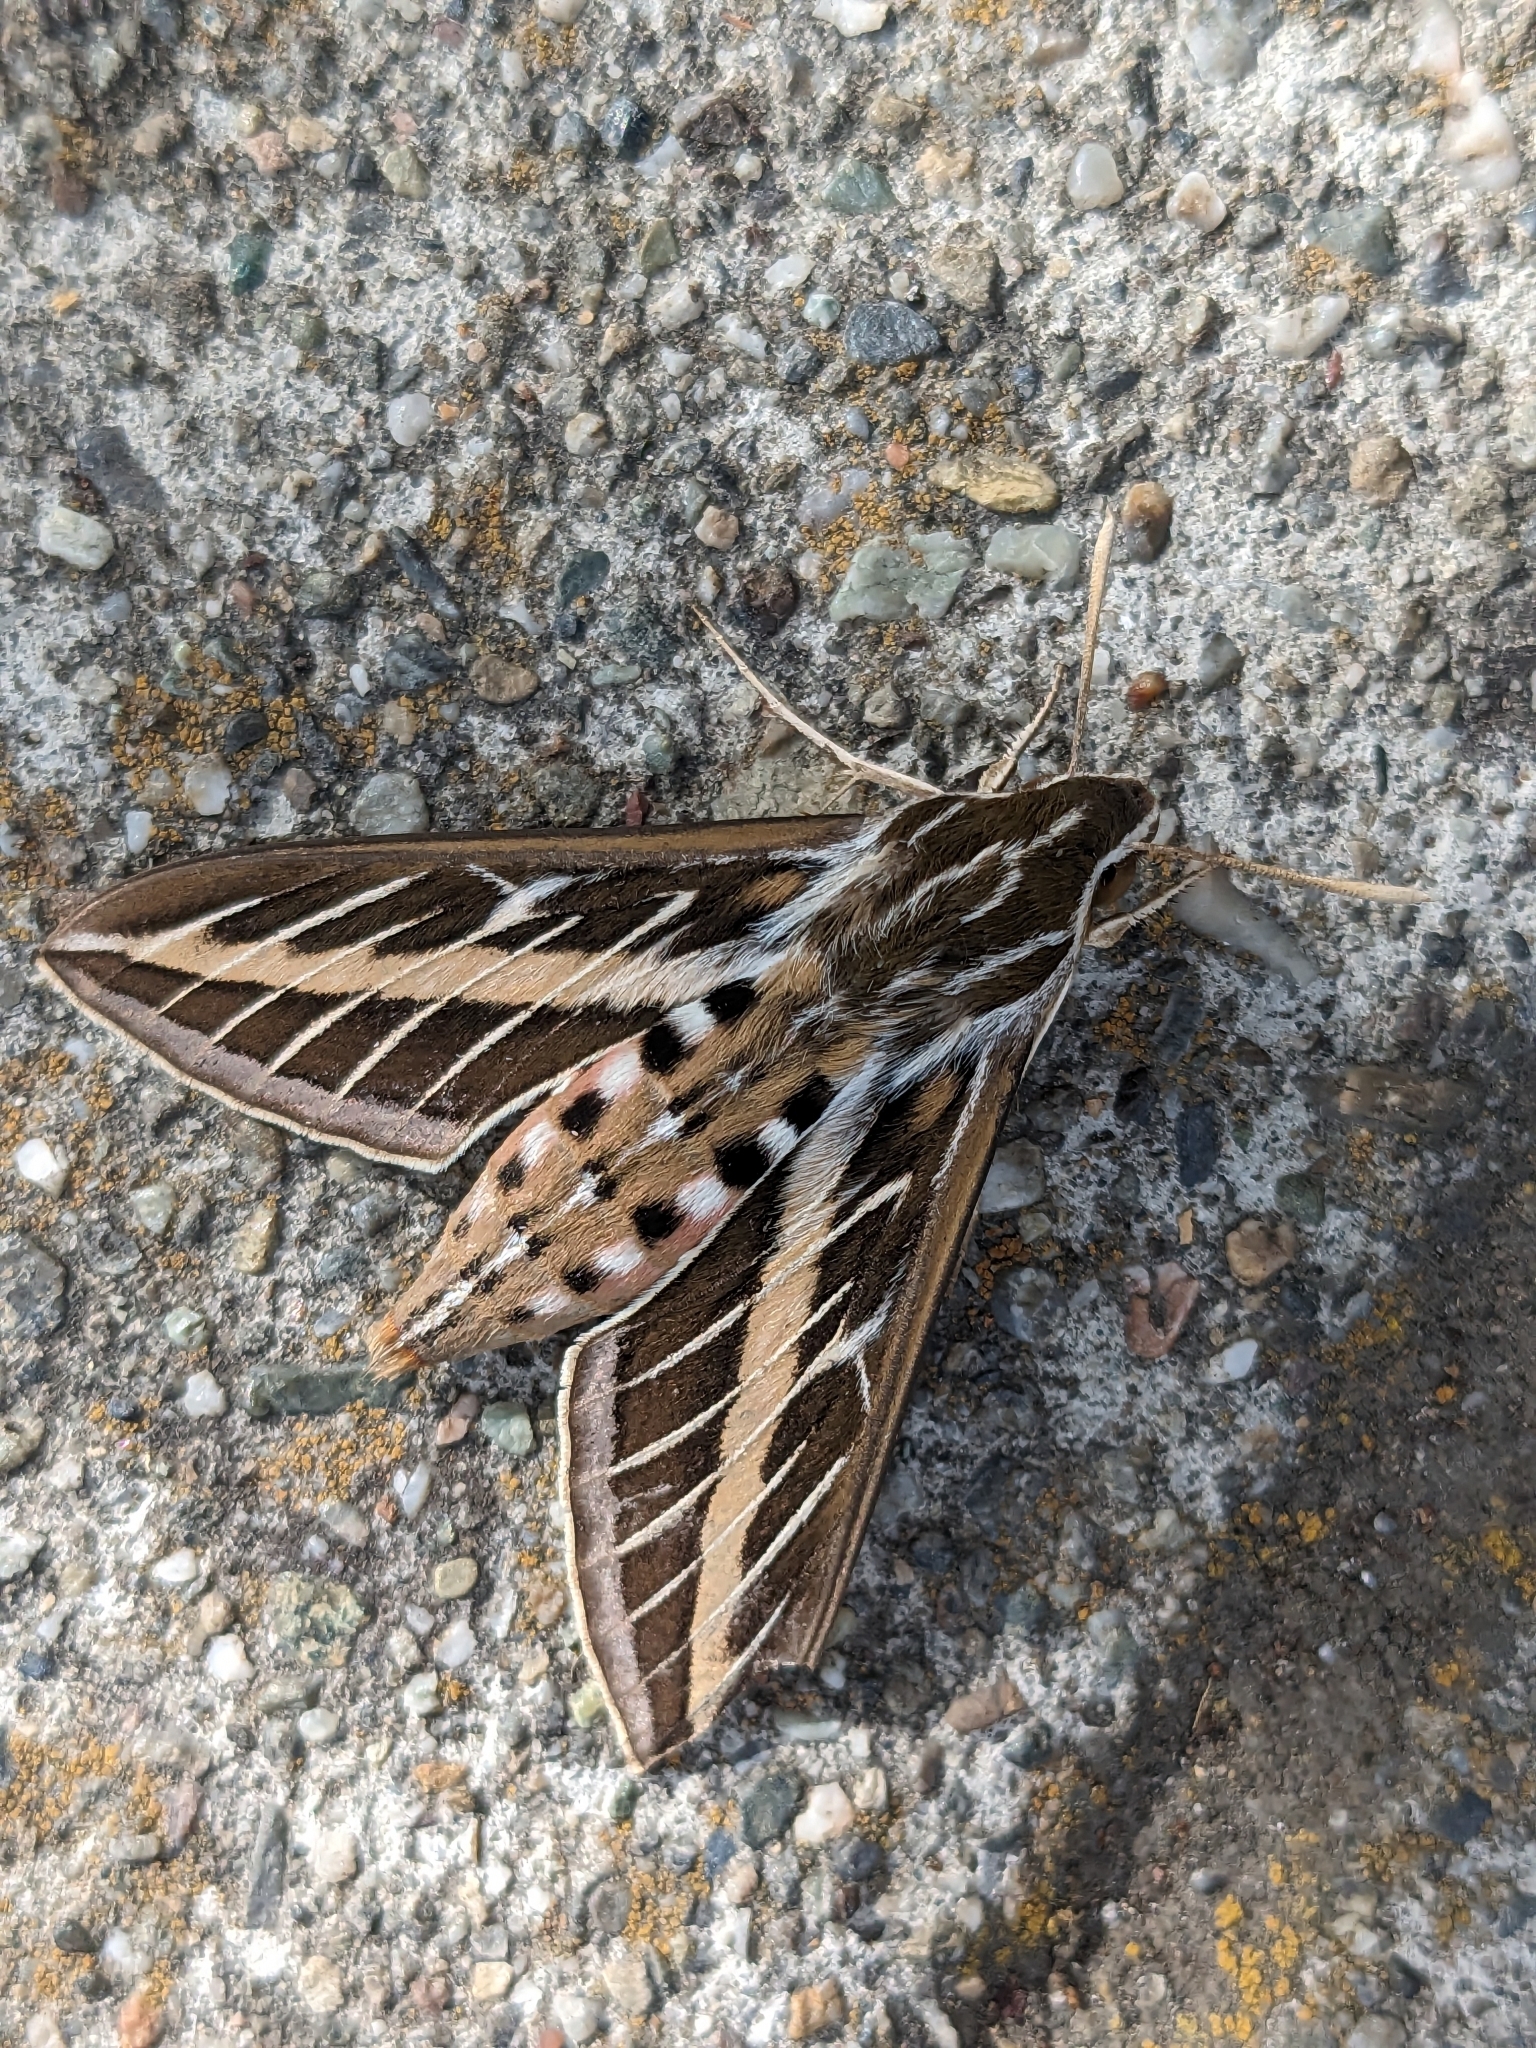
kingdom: Animalia
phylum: Arthropoda
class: Insecta
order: Lepidoptera
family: Sphingidae
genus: Hyles
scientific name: Hyles lineata
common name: White-lined sphinx
